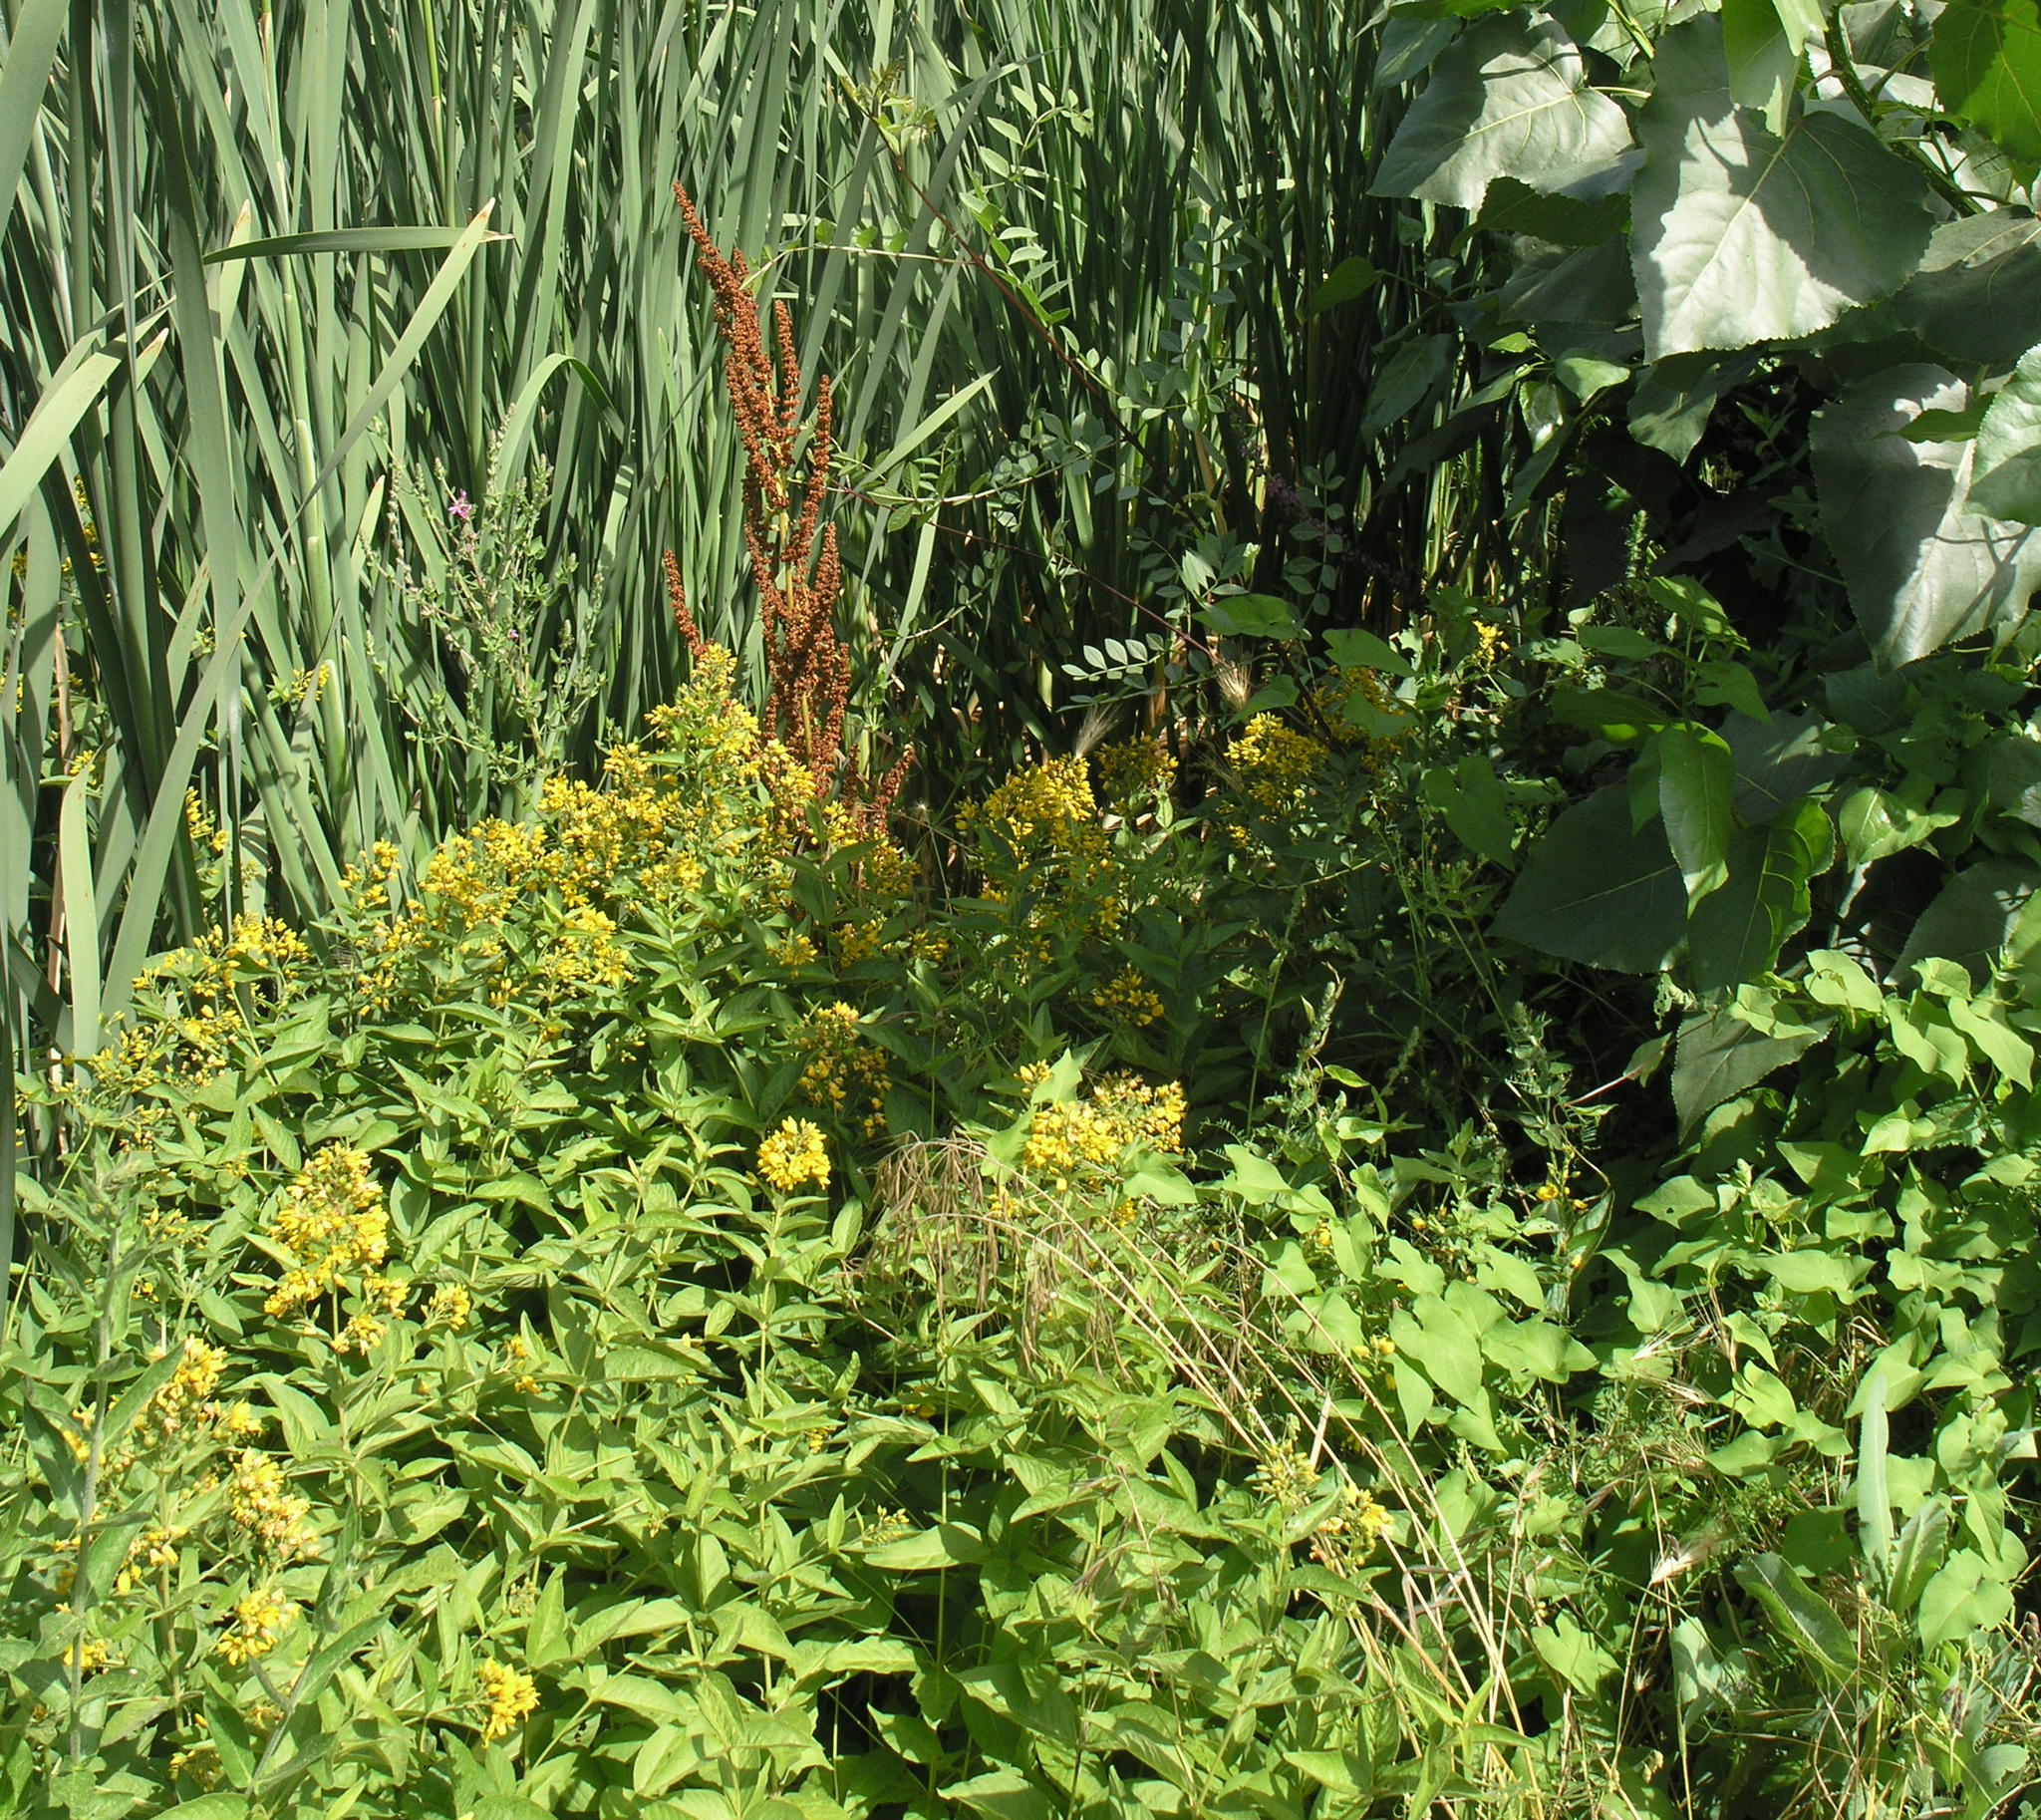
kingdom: Plantae
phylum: Tracheophyta
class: Magnoliopsida
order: Ericales
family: Primulaceae
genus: Lysimachia
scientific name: Lysimachia vulgaris
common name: Yellow loosestrife
